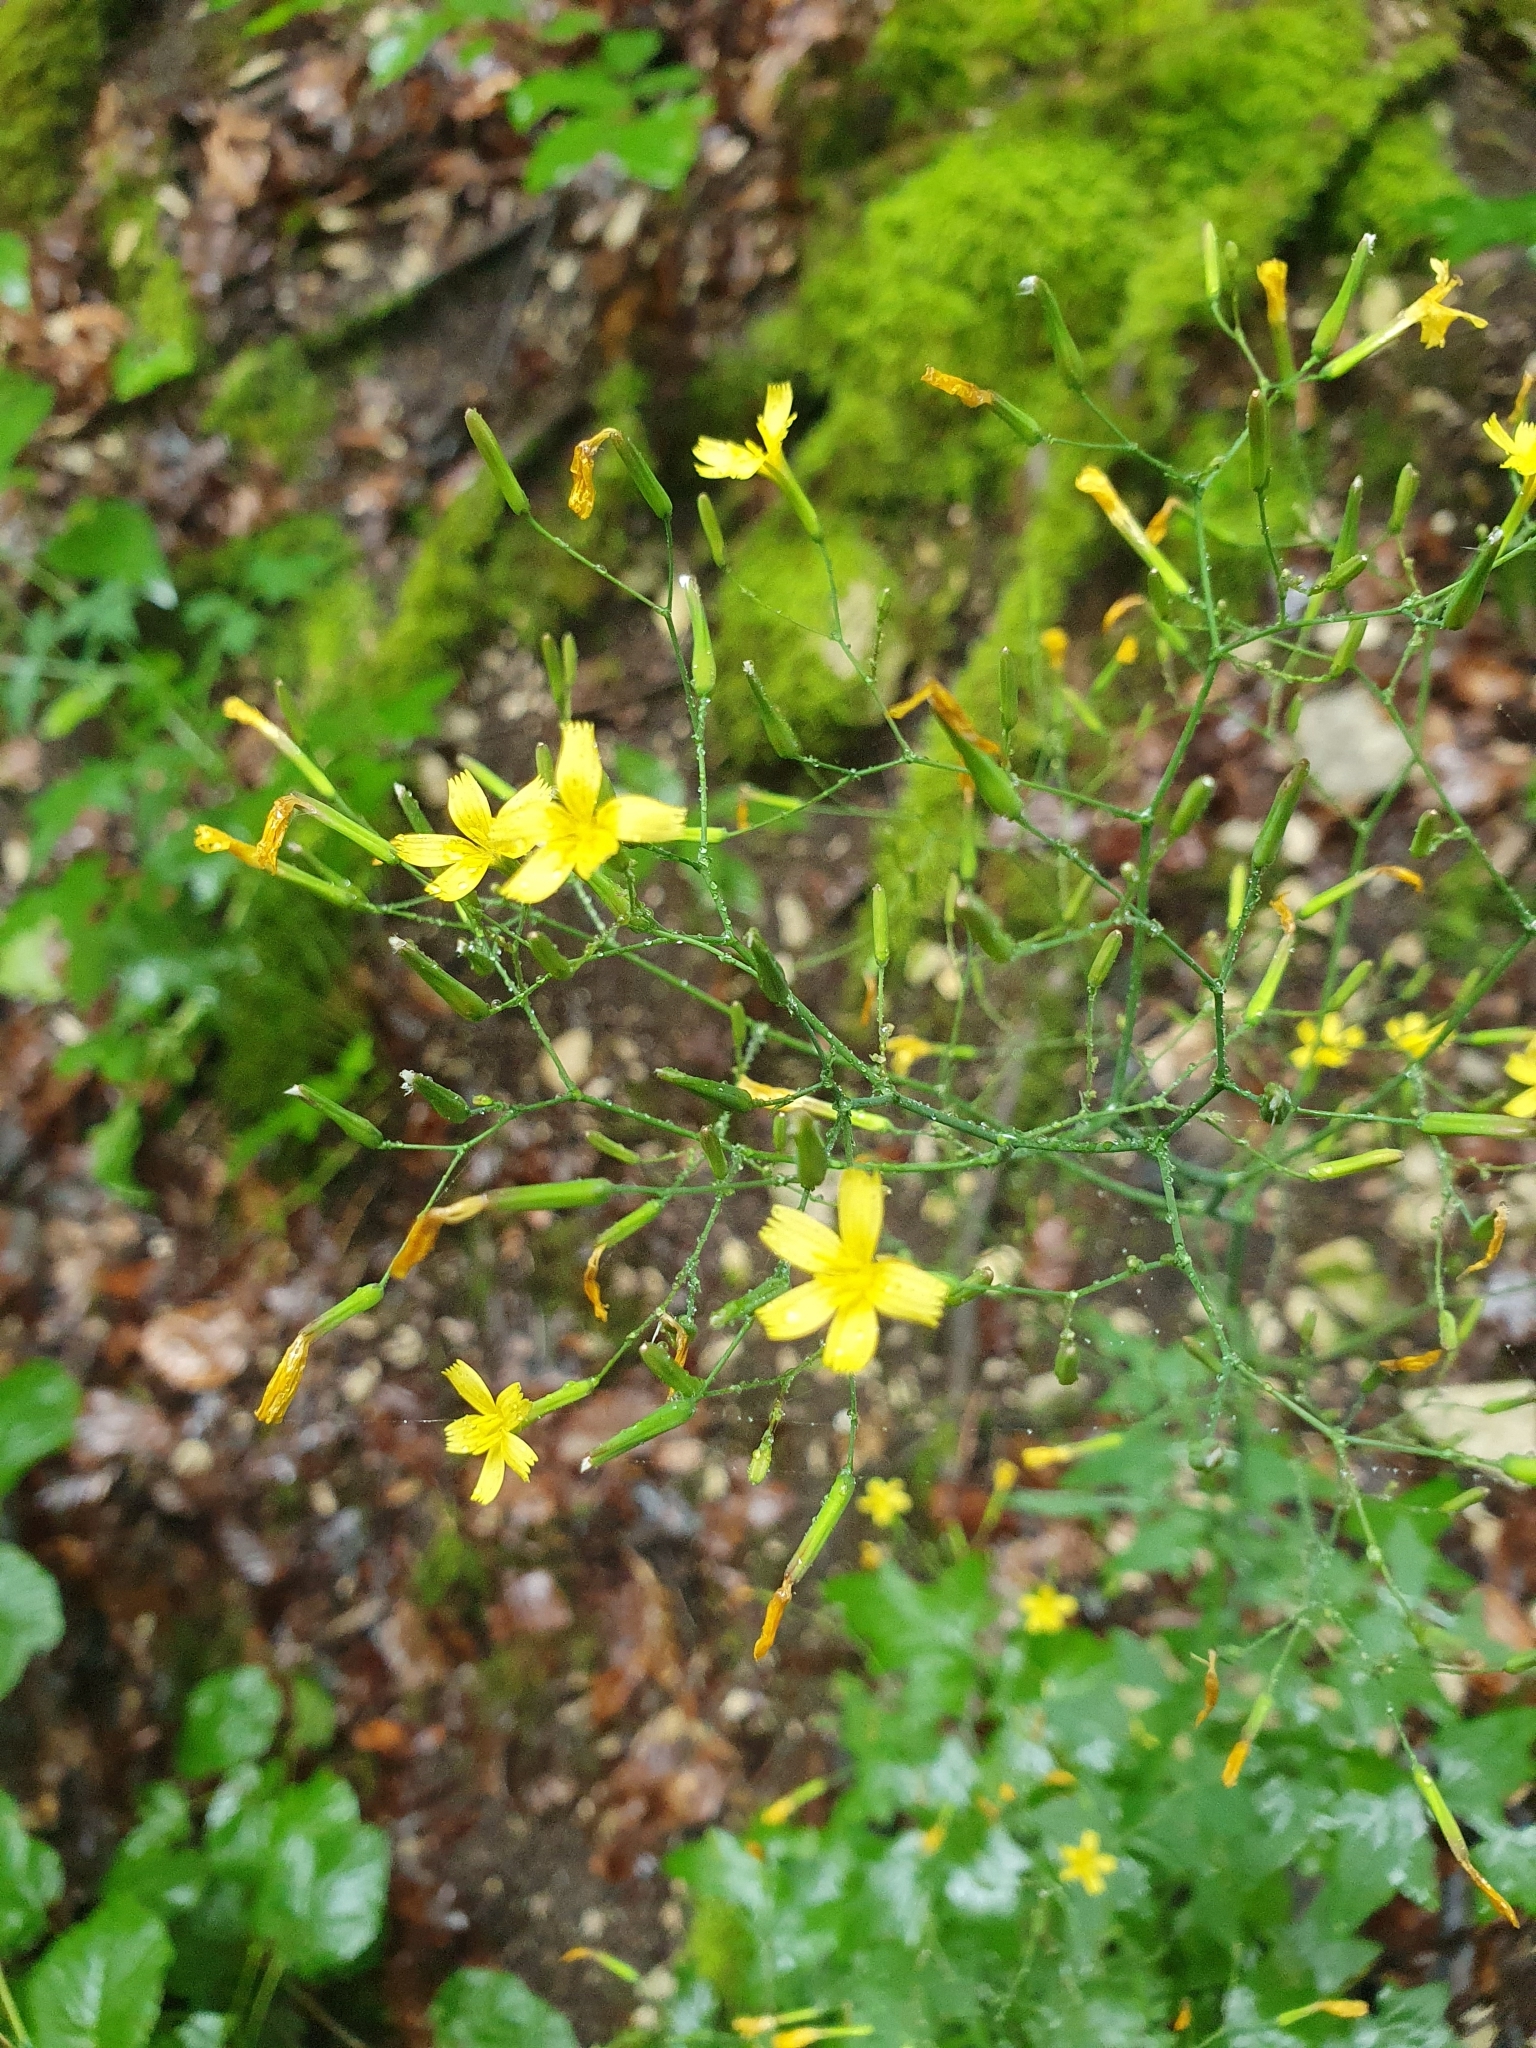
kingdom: Plantae
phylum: Tracheophyta
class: Magnoliopsida
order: Asterales
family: Asteraceae
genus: Mycelis
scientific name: Mycelis muralis
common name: Wall lettuce
